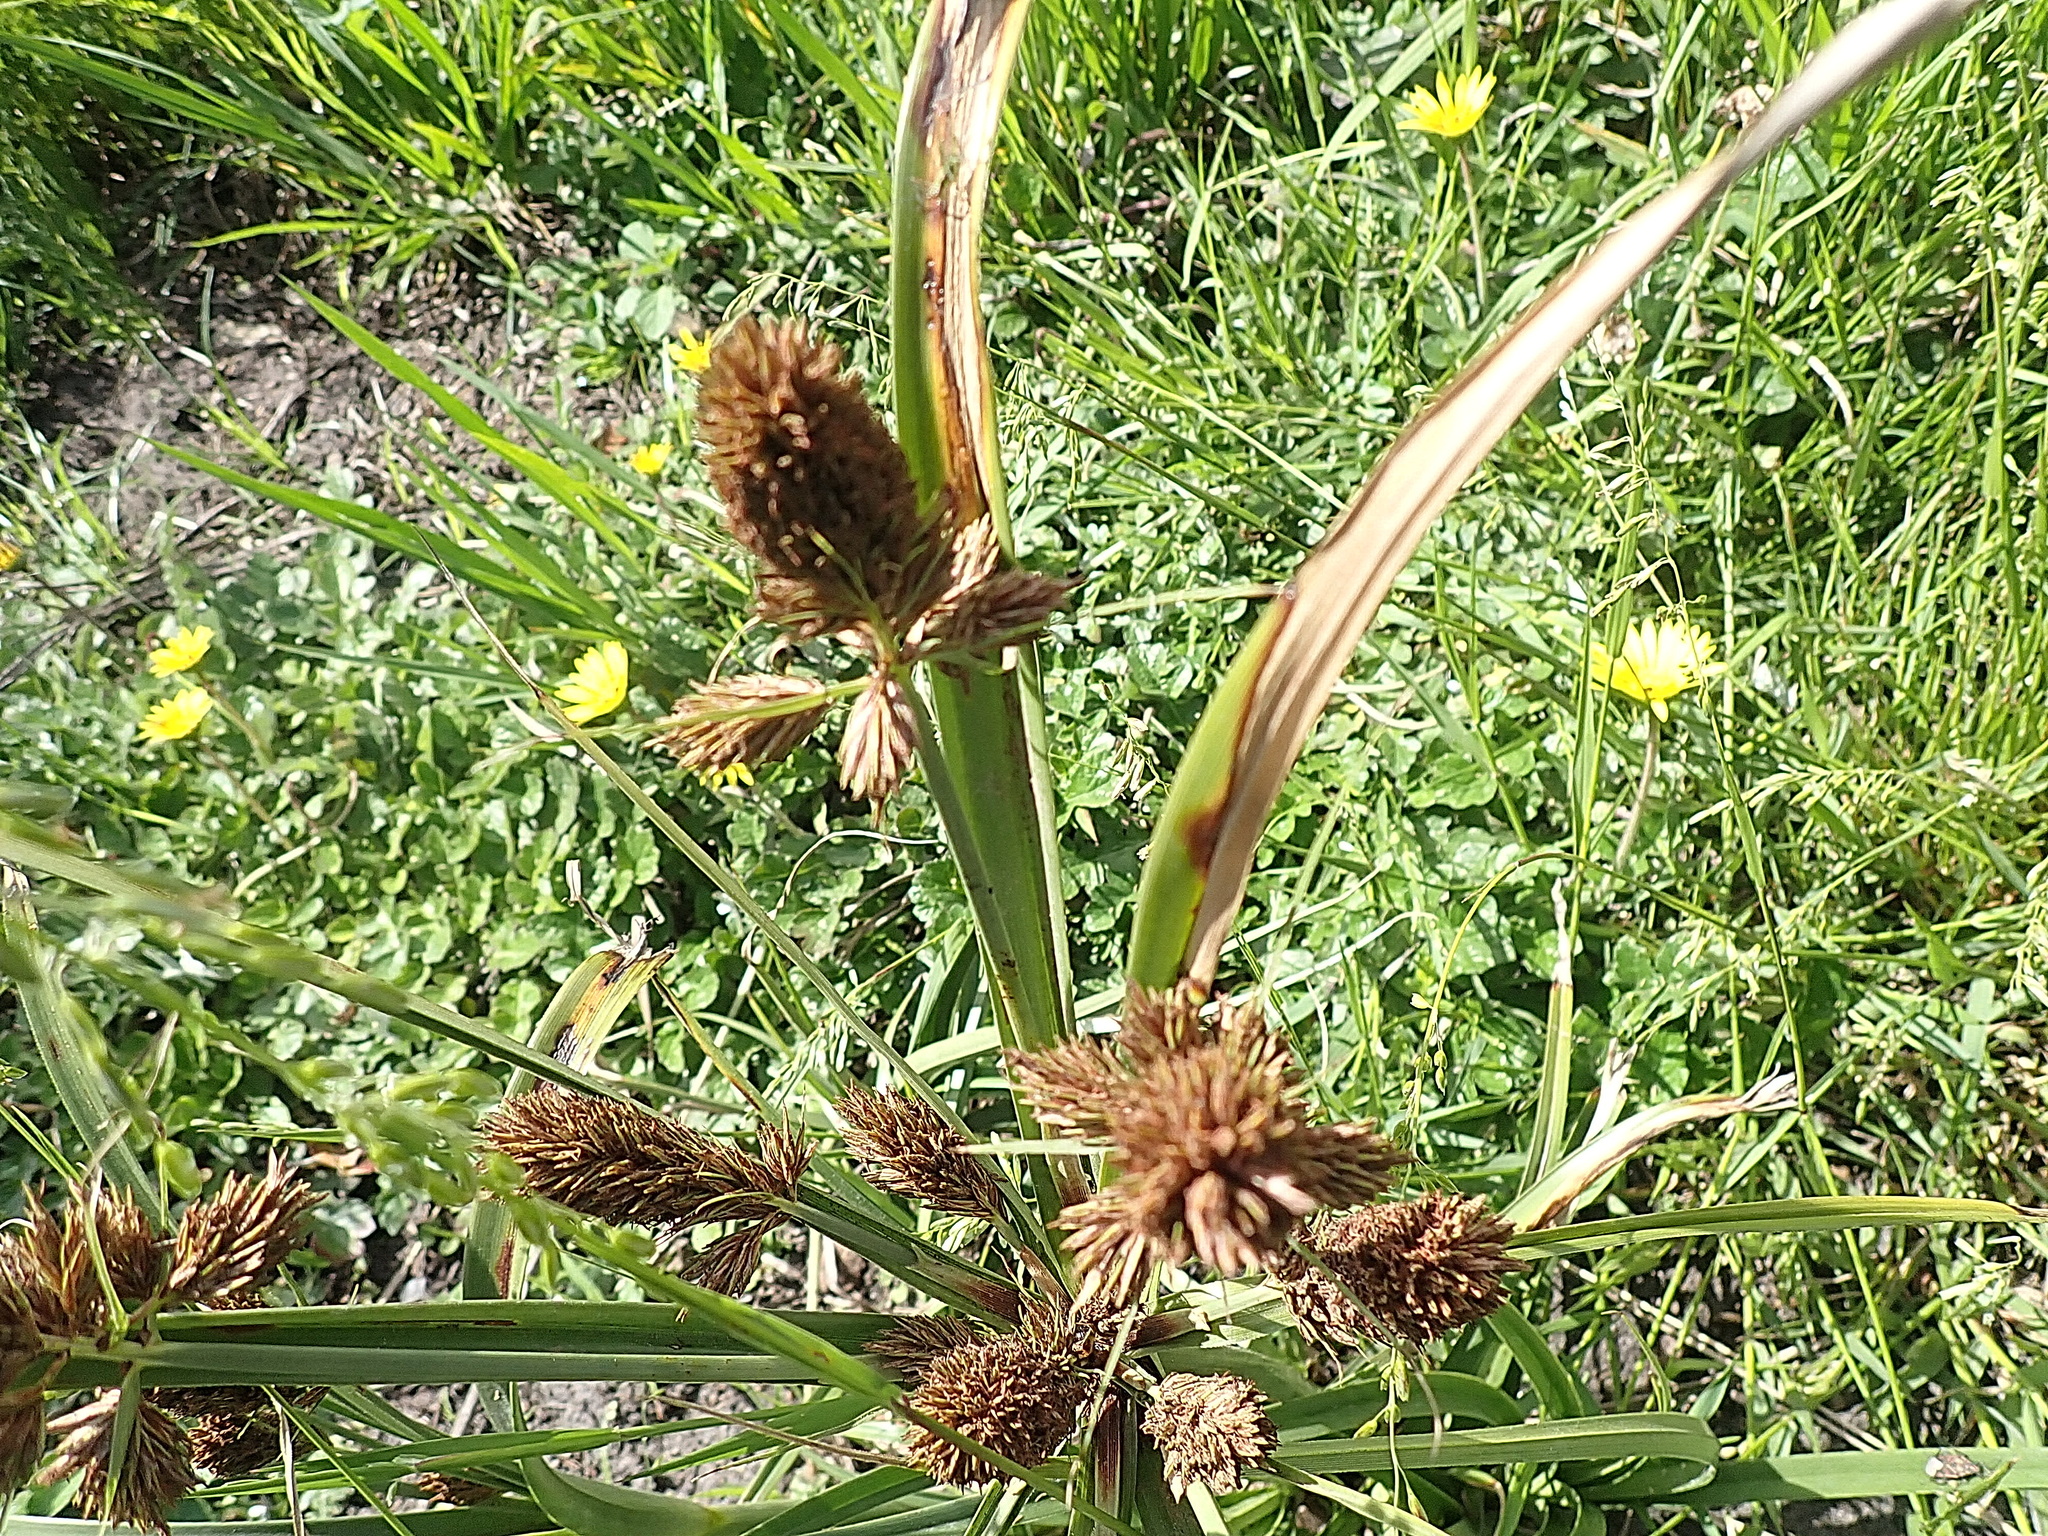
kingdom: Plantae
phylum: Tracheophyta
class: Liliopsida
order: Poales
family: Cyperaceae
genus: Cyperus
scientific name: Cyperus thunbergii
